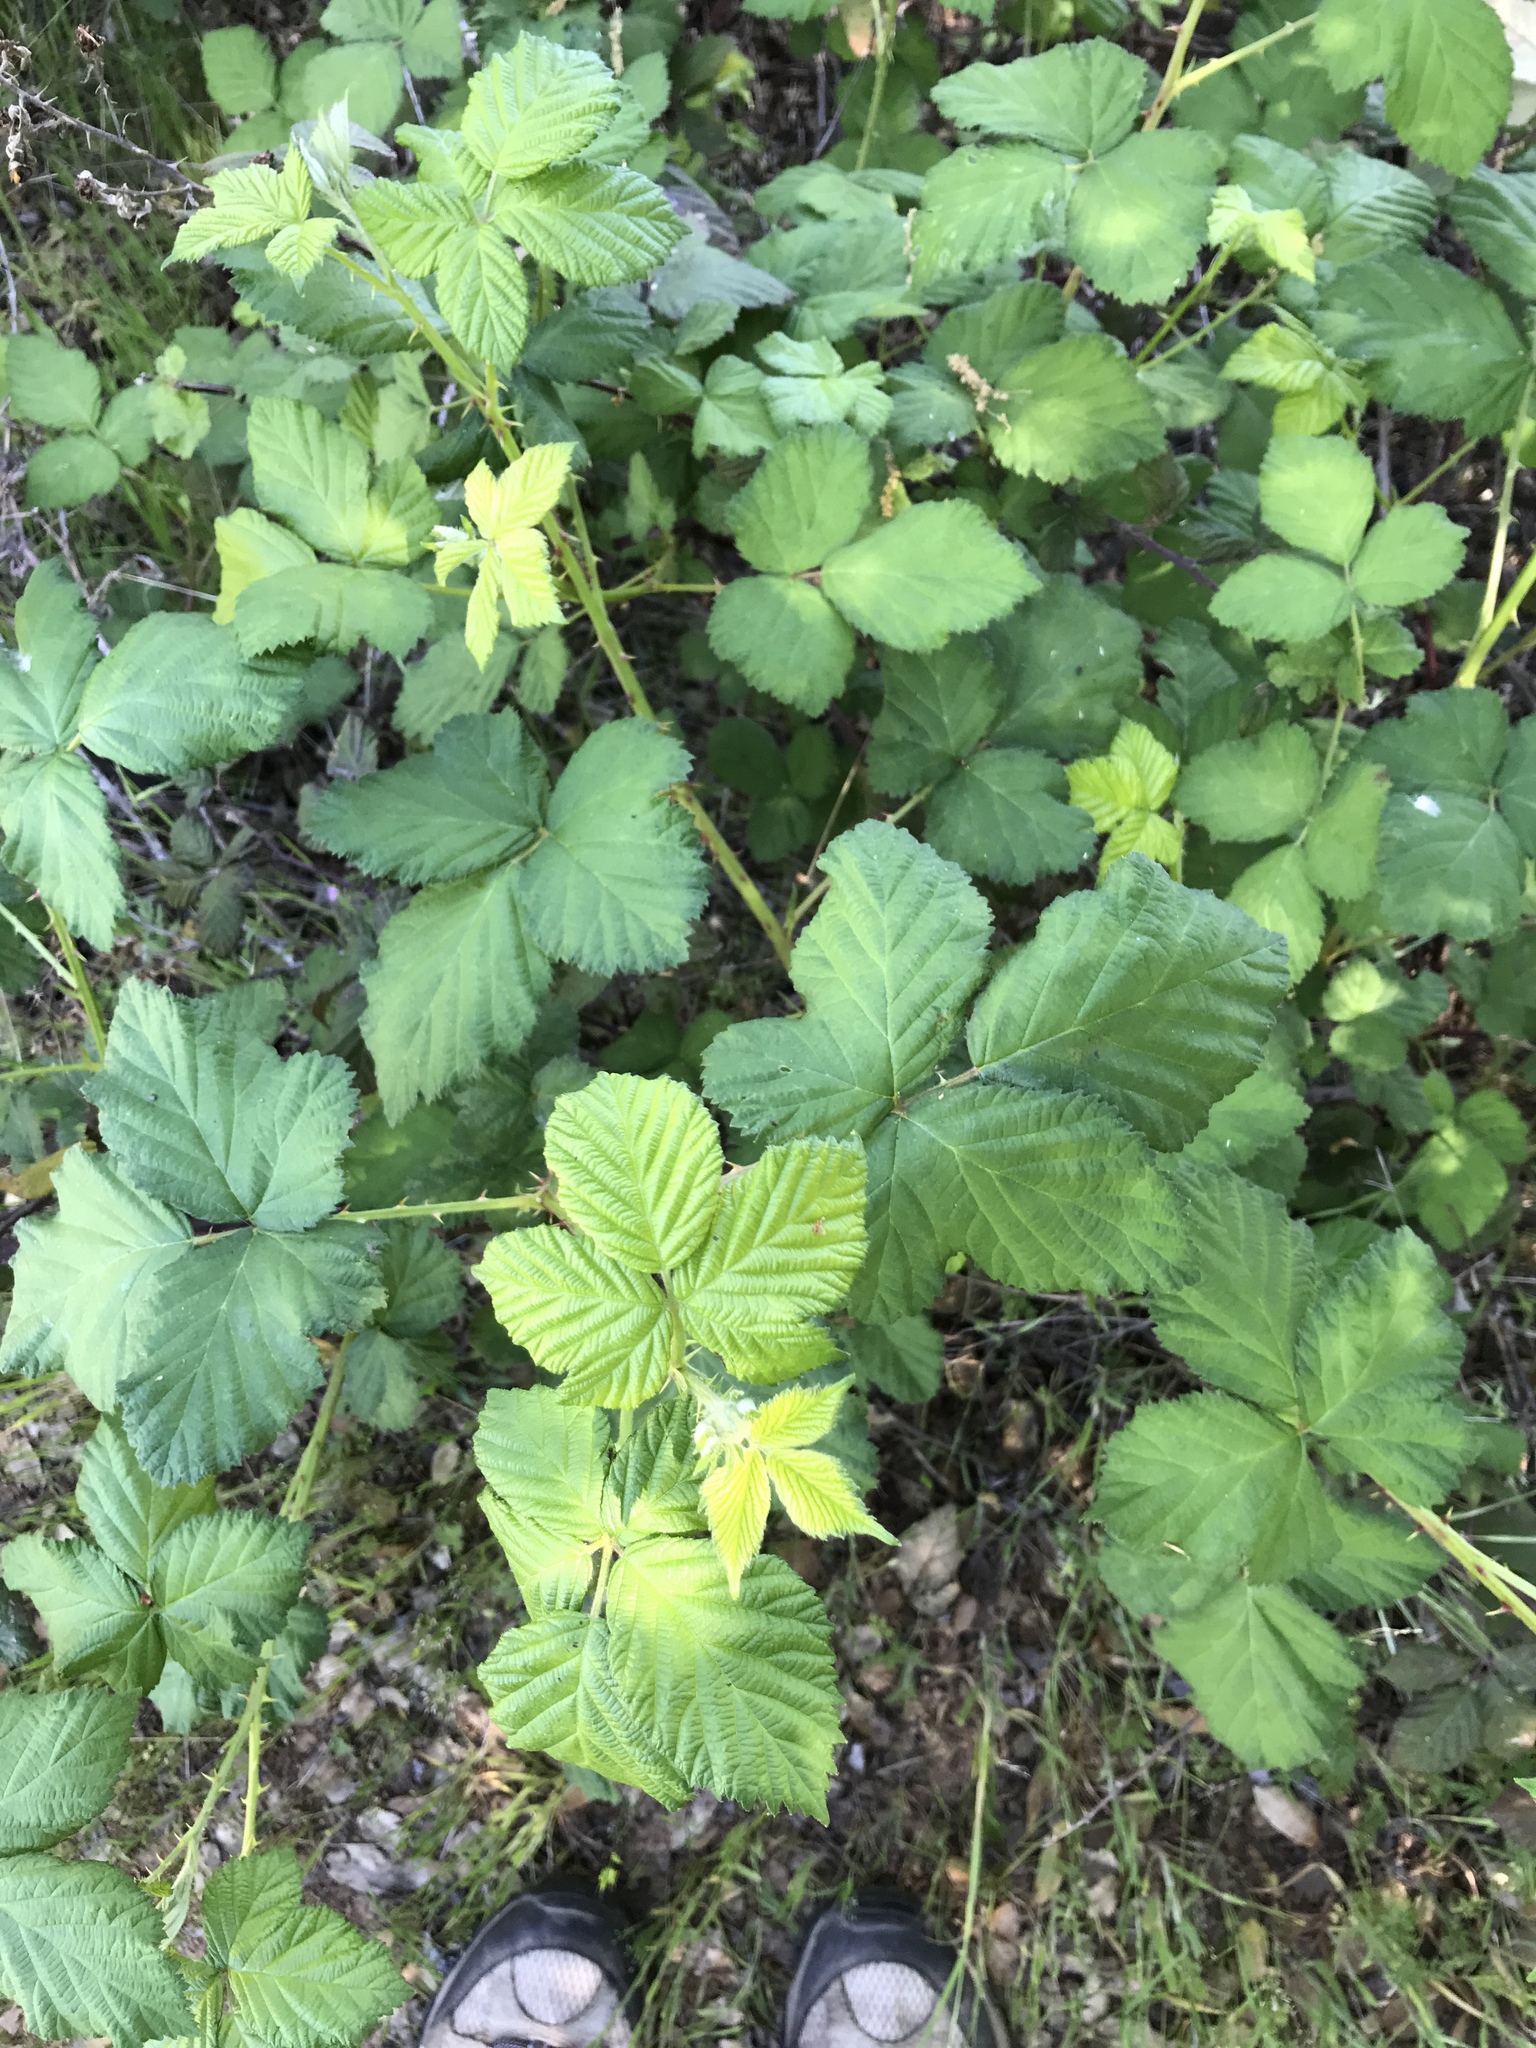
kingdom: Plantae
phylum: Tracheophyta
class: Magnoliopsida
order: Rosales
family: Rosaceae
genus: Rubus
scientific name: Rubus armeniacus
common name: Himalayan blackberry
